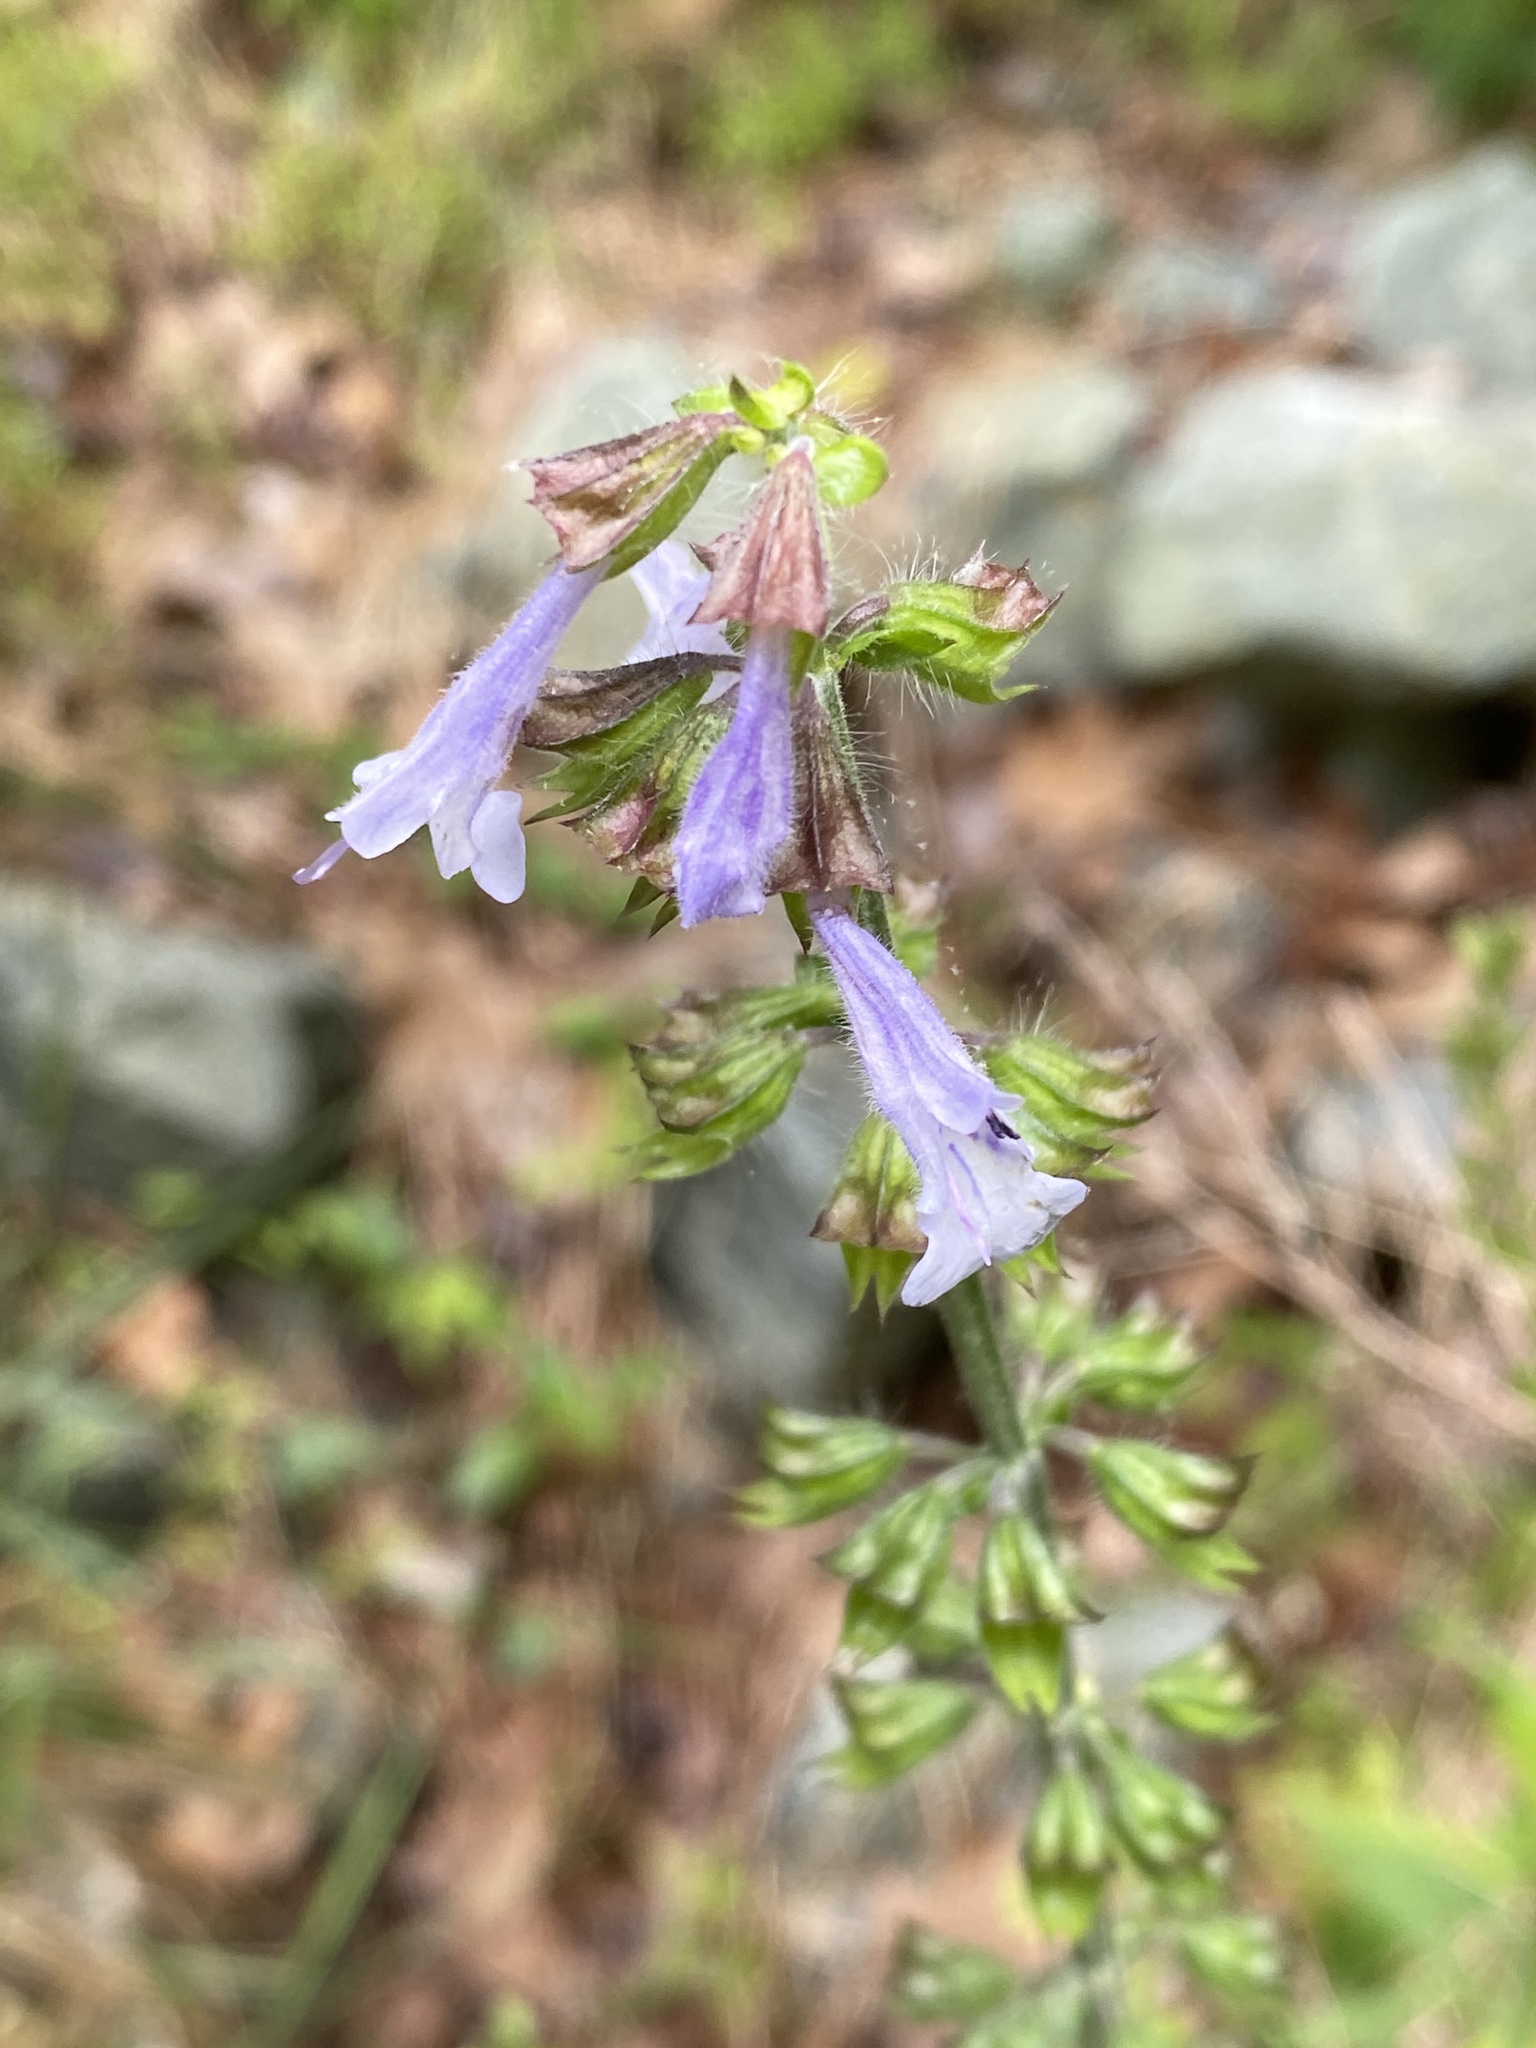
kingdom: Plantae
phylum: Tracheophyta
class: Magnoliopsida
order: Lamiales
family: Lamiaceae
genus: Salvia
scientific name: Salvia lyrata
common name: Cancerweed
